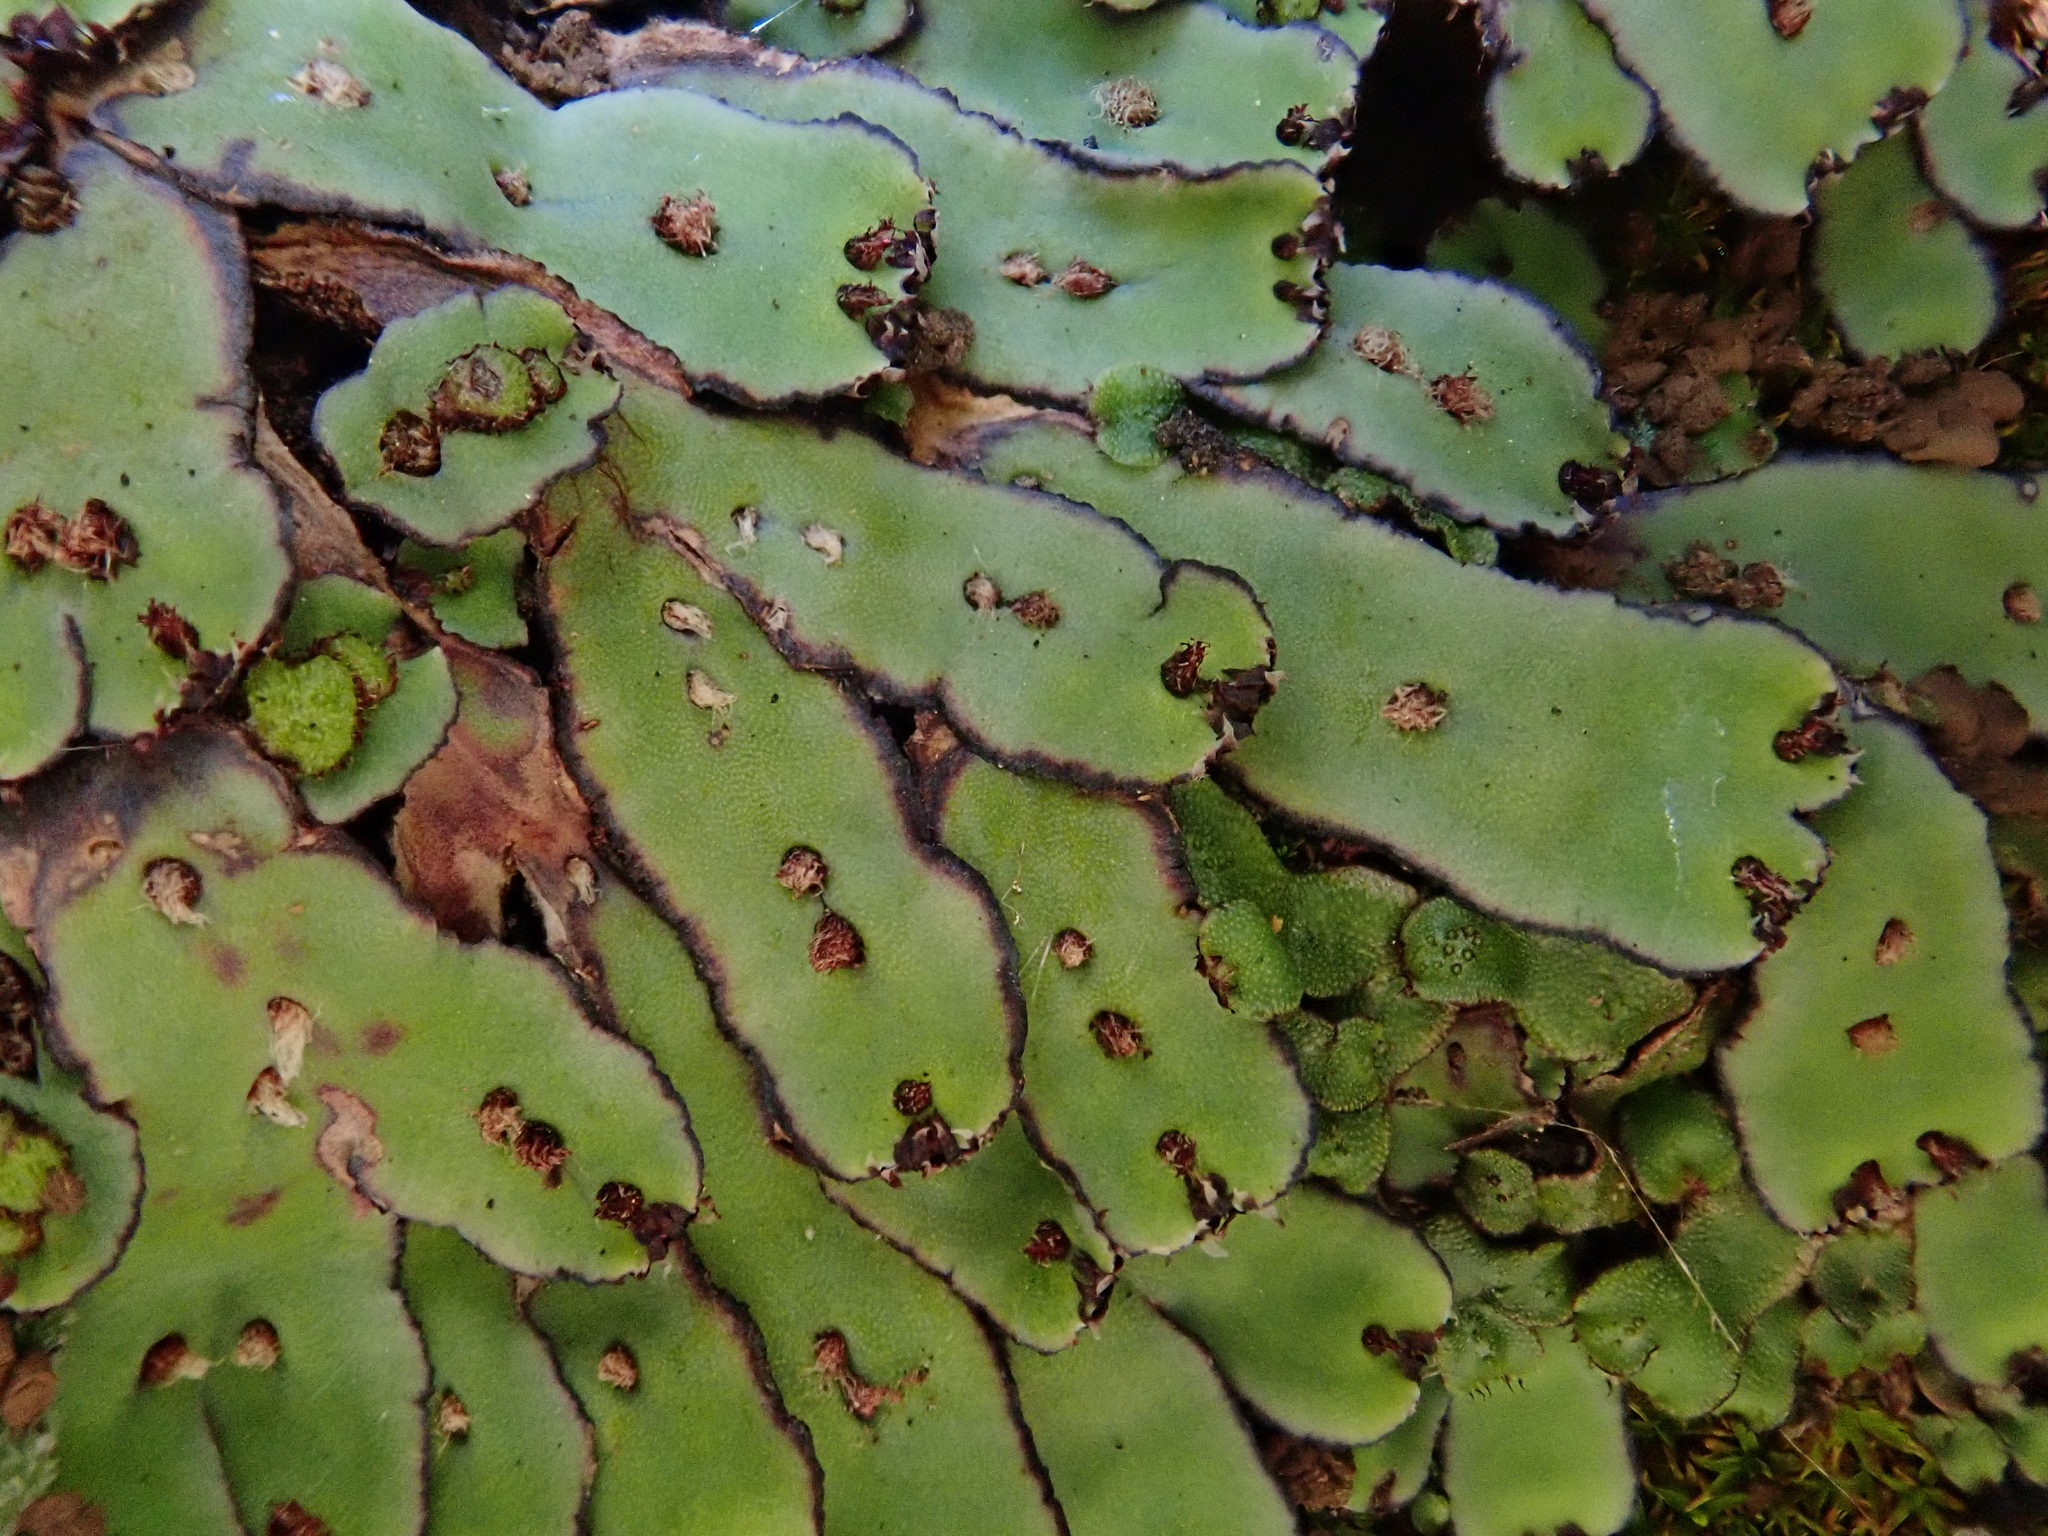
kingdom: Plantae
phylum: Marchantiophyta
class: Marchantiopsida
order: Marchantiales
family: Aytoniaceae
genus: Plagiochasma
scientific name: Plagiochasma rupestre
